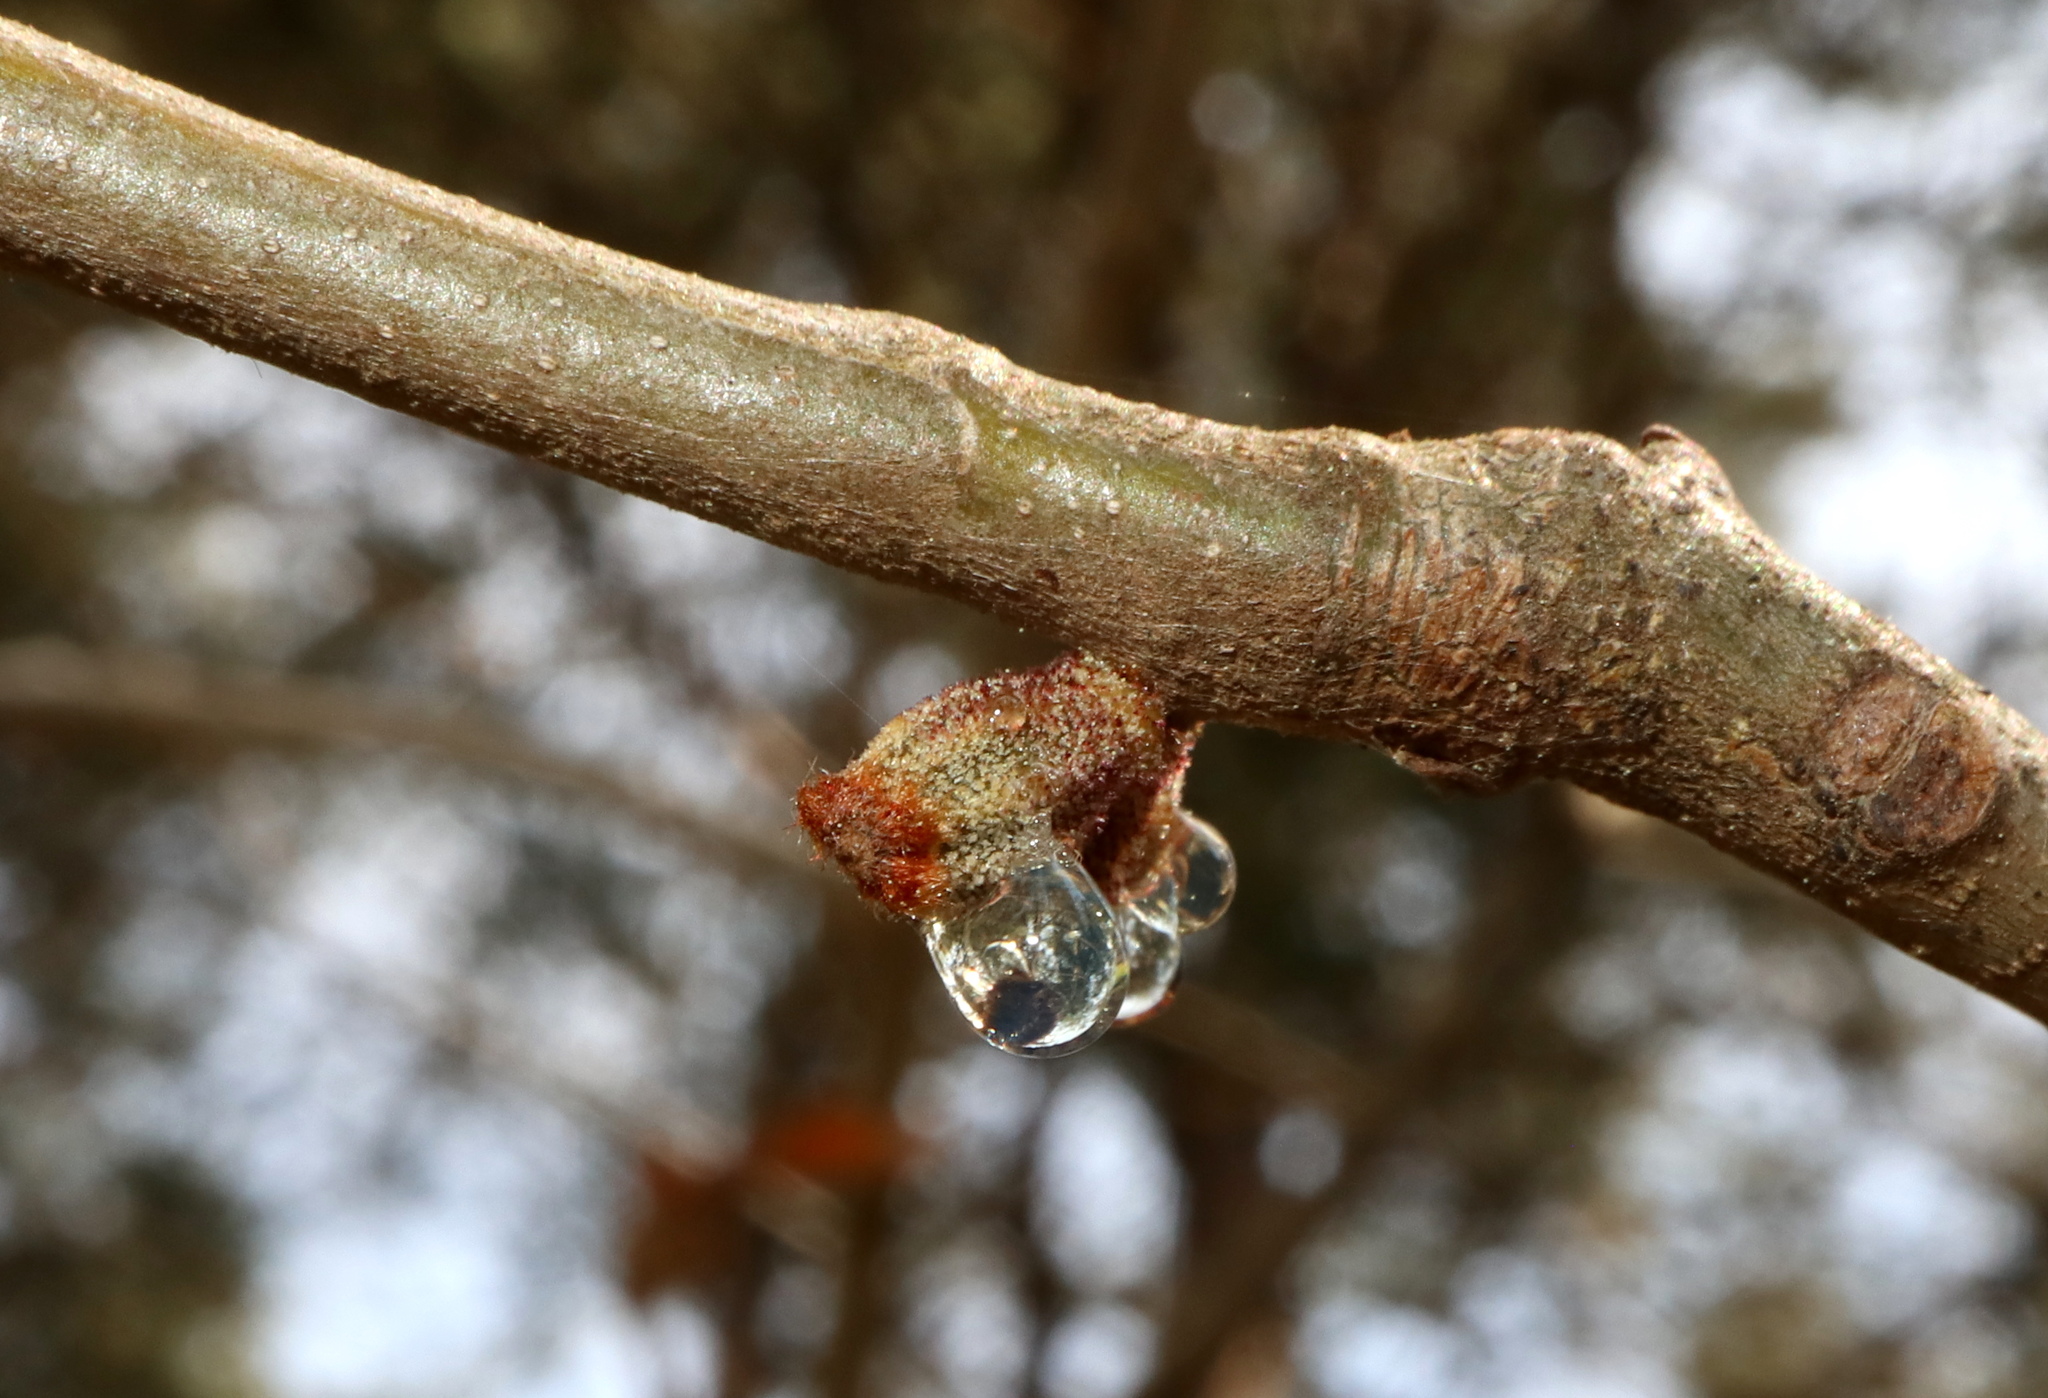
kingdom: Animalia
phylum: Arthropoda
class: Insecta
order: Hymenoptera
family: Cynipidae
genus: Callirhytis
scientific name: Callirhytis
